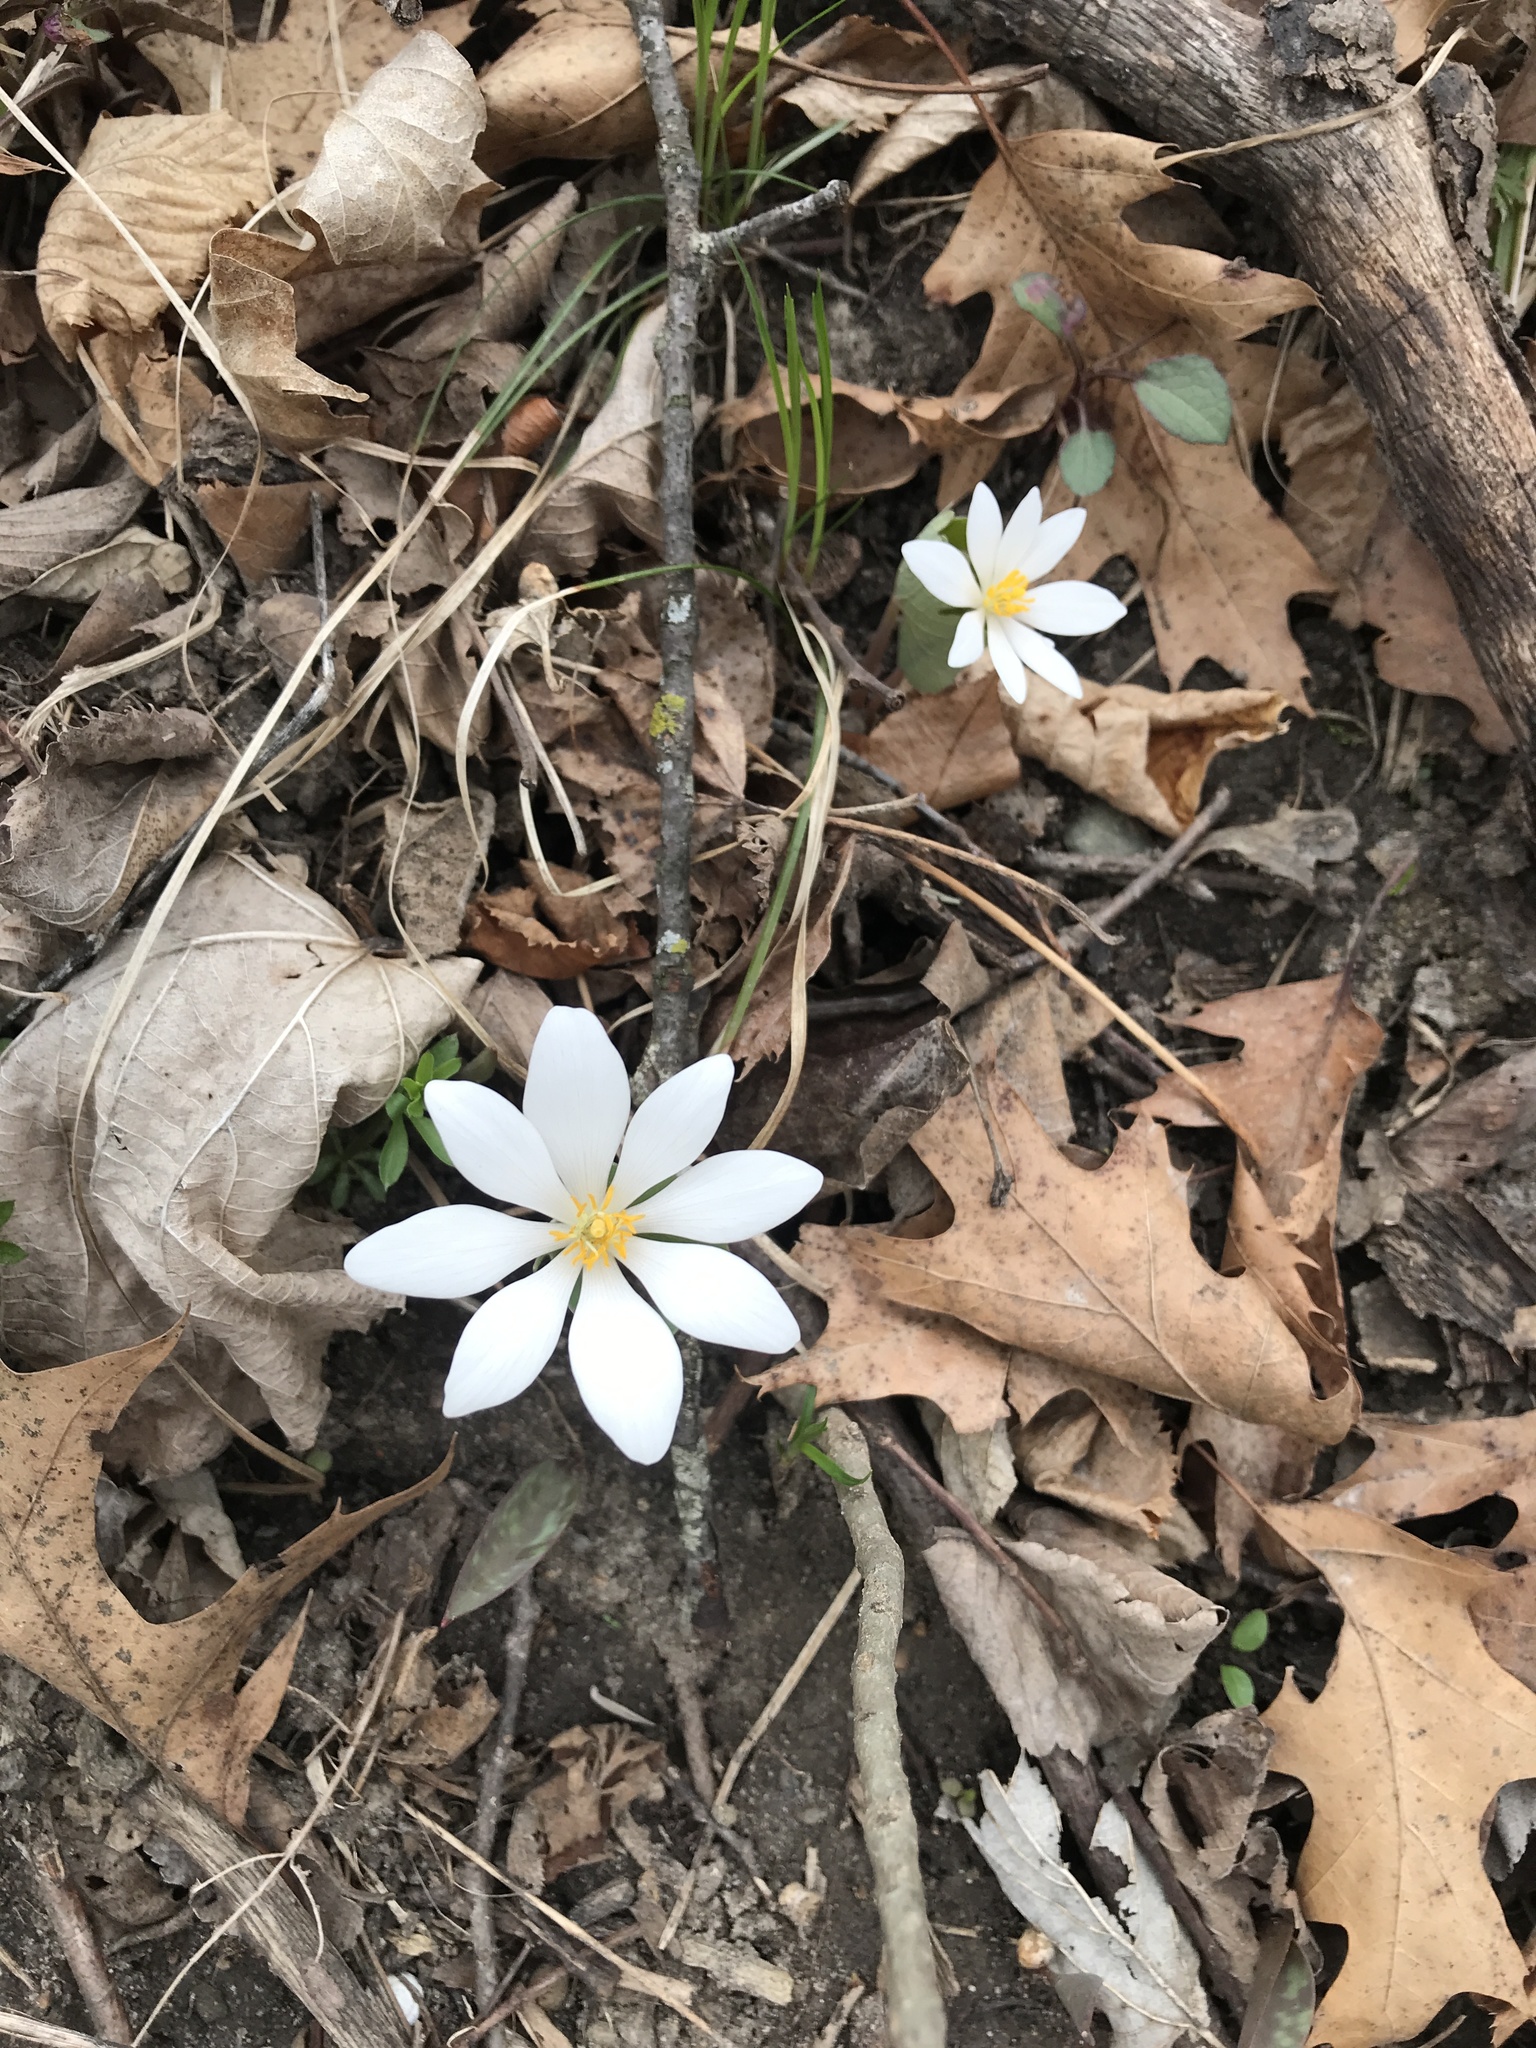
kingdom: Plantae
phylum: Tracheophyta
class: Magnoliopsida
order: Ranunculales
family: Papaveraceae
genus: Sanguinaria
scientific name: Sanguinaria canadensis
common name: Bloodroot
